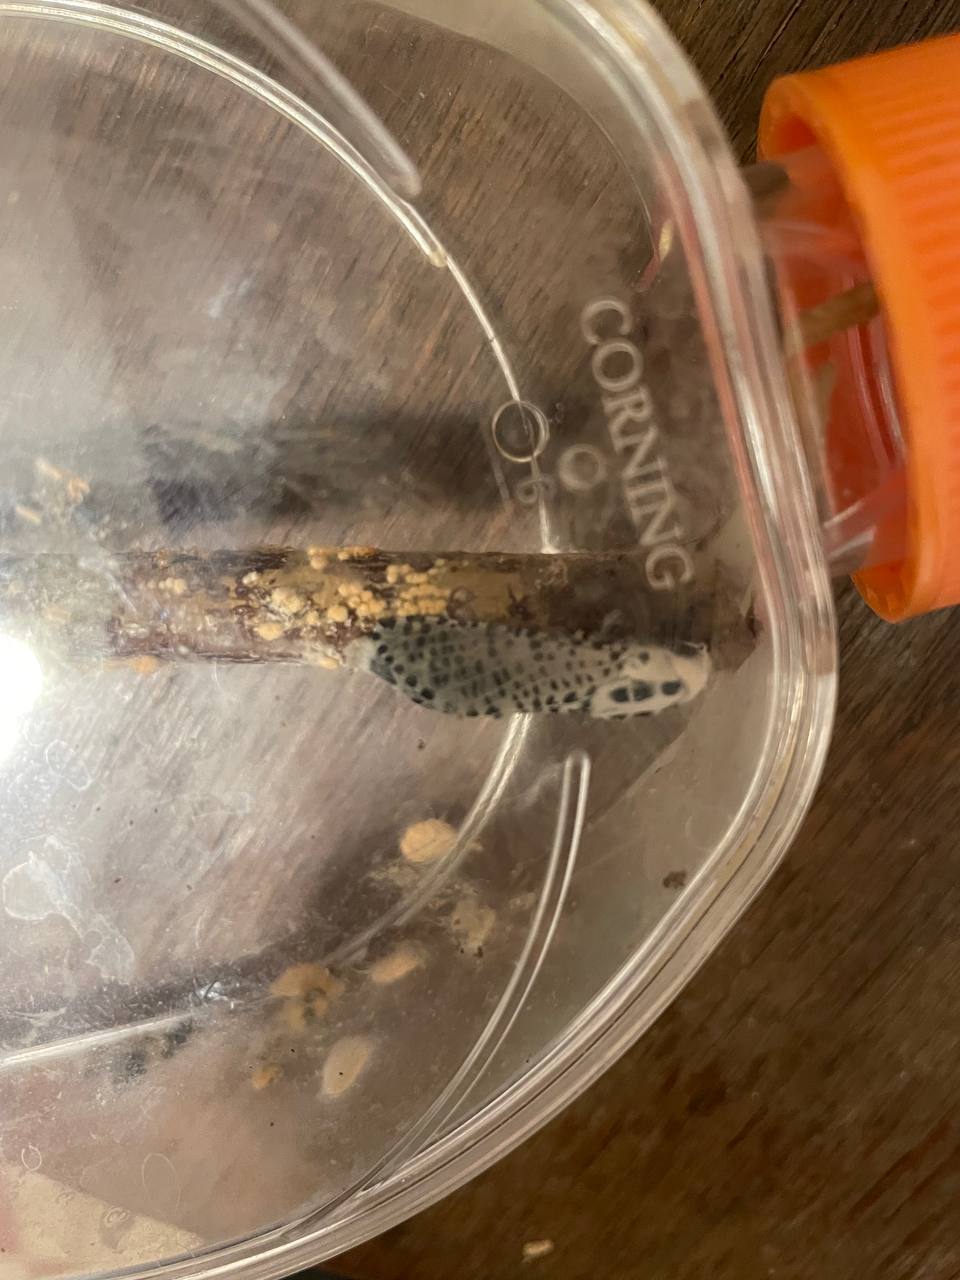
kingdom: Animalia
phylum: Arthropoda
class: Insecta
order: Lepidoptera
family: Cossidae
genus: Zeuzera
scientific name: Zeuzera pyrina
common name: Leopard moth
